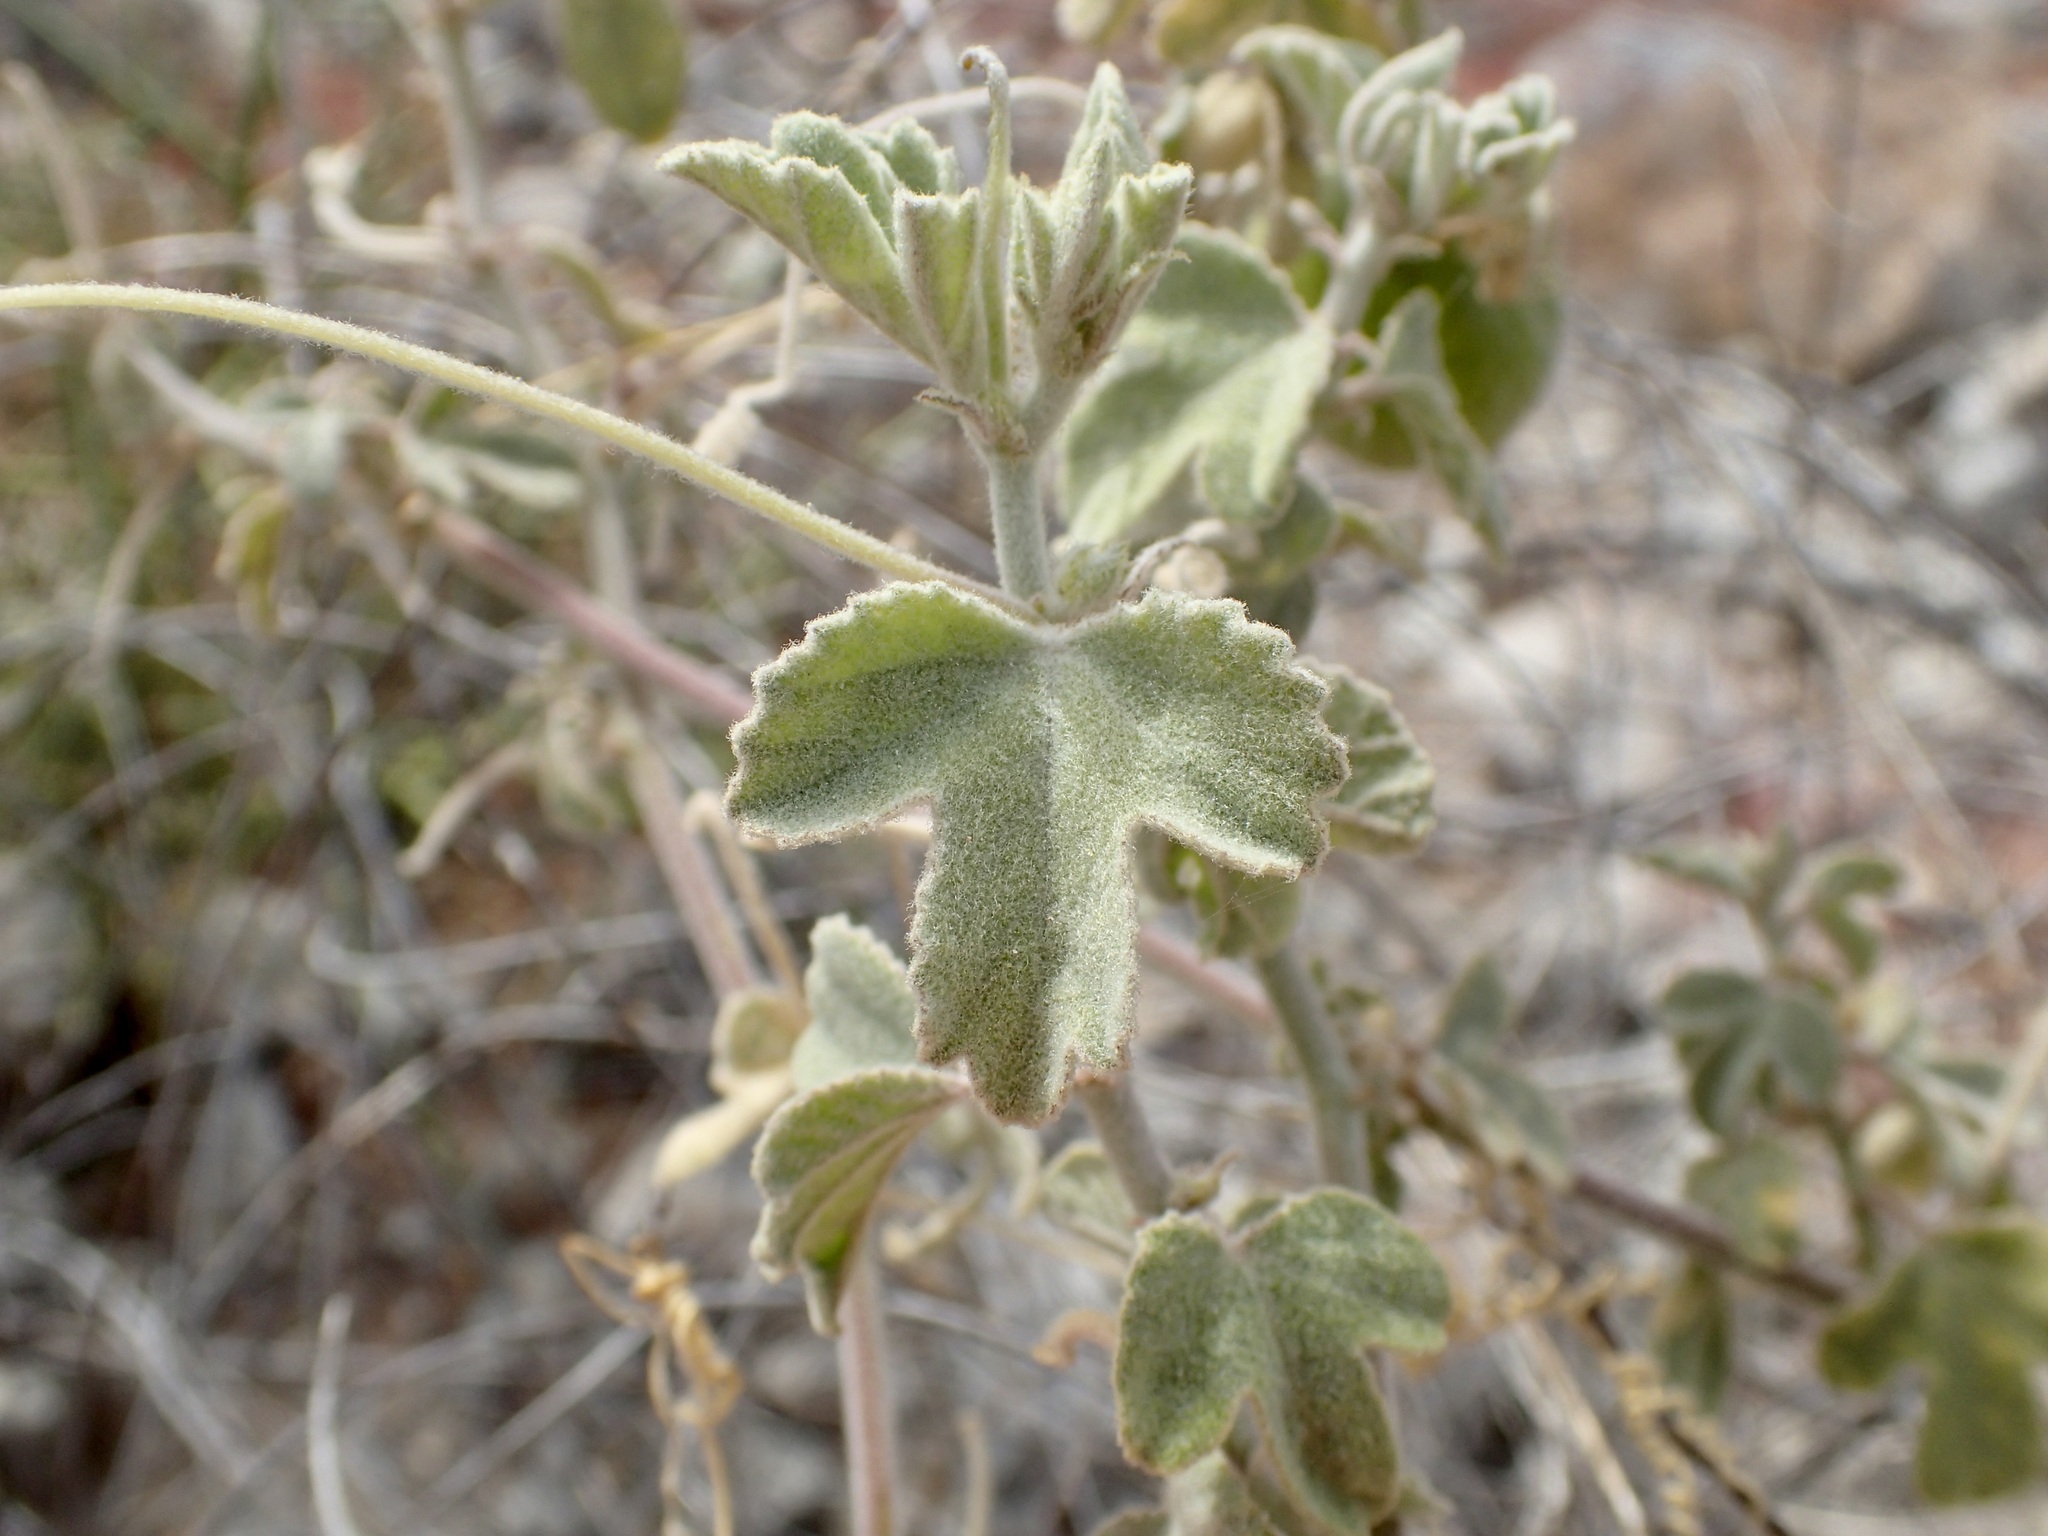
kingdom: Plantae
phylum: Tracheophyta
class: Magnoliopsida
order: Malpighiales
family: Passifloraceae
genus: Passiflora
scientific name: Passiflora arida
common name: Desert passionflower
